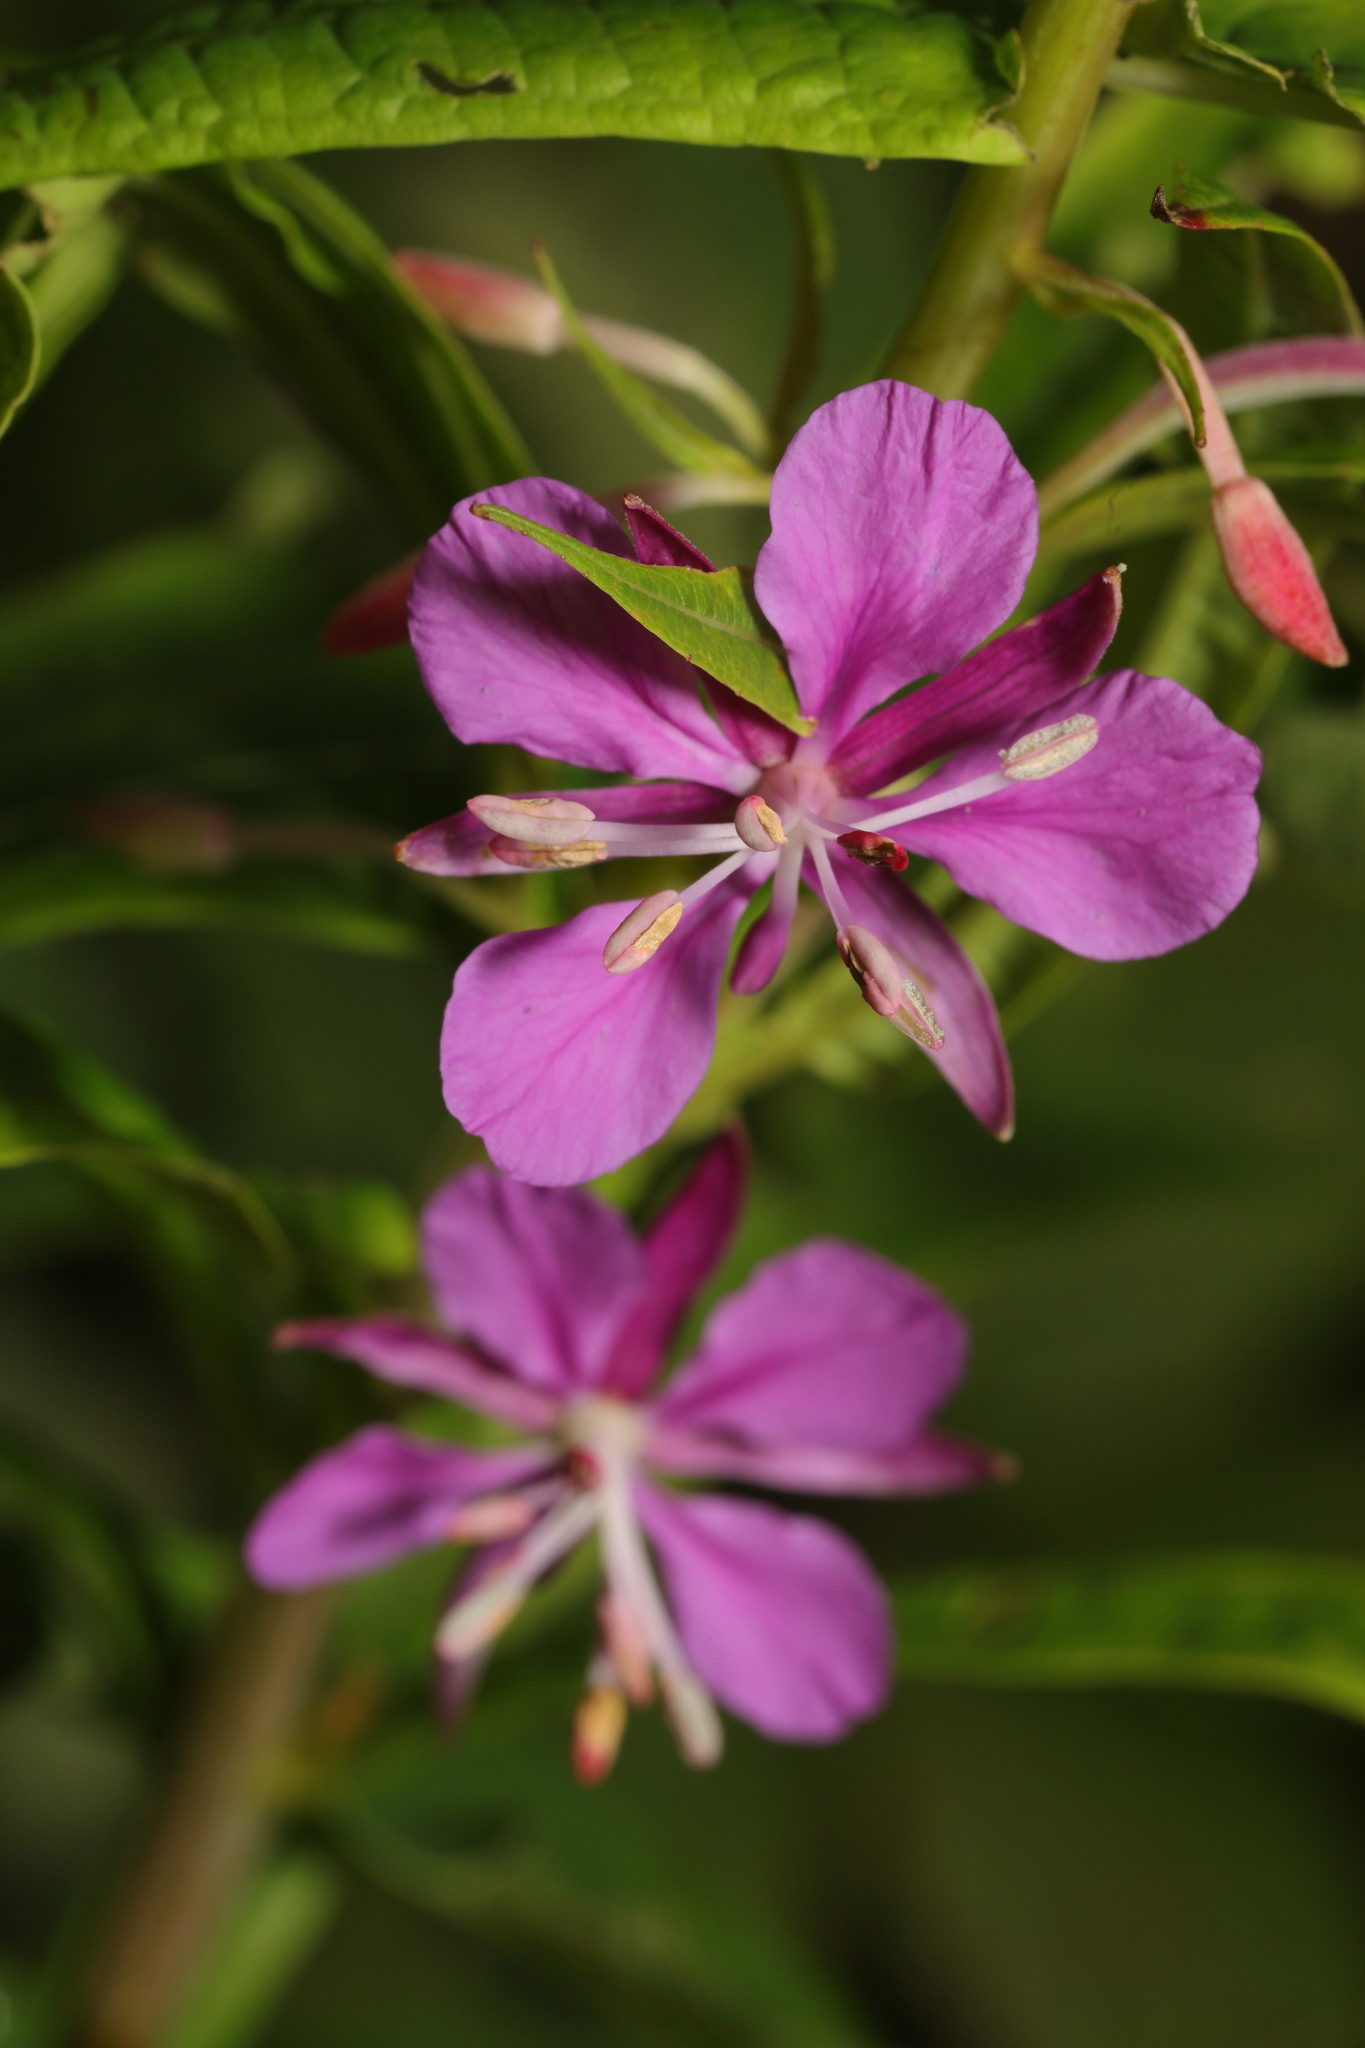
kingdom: Plantae
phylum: Tracheophyta
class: Magnoliopsida
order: Myrtales
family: Onagraceae
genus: Chamaenerion
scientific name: Chamaenerion angustifolium
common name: Fireweed
